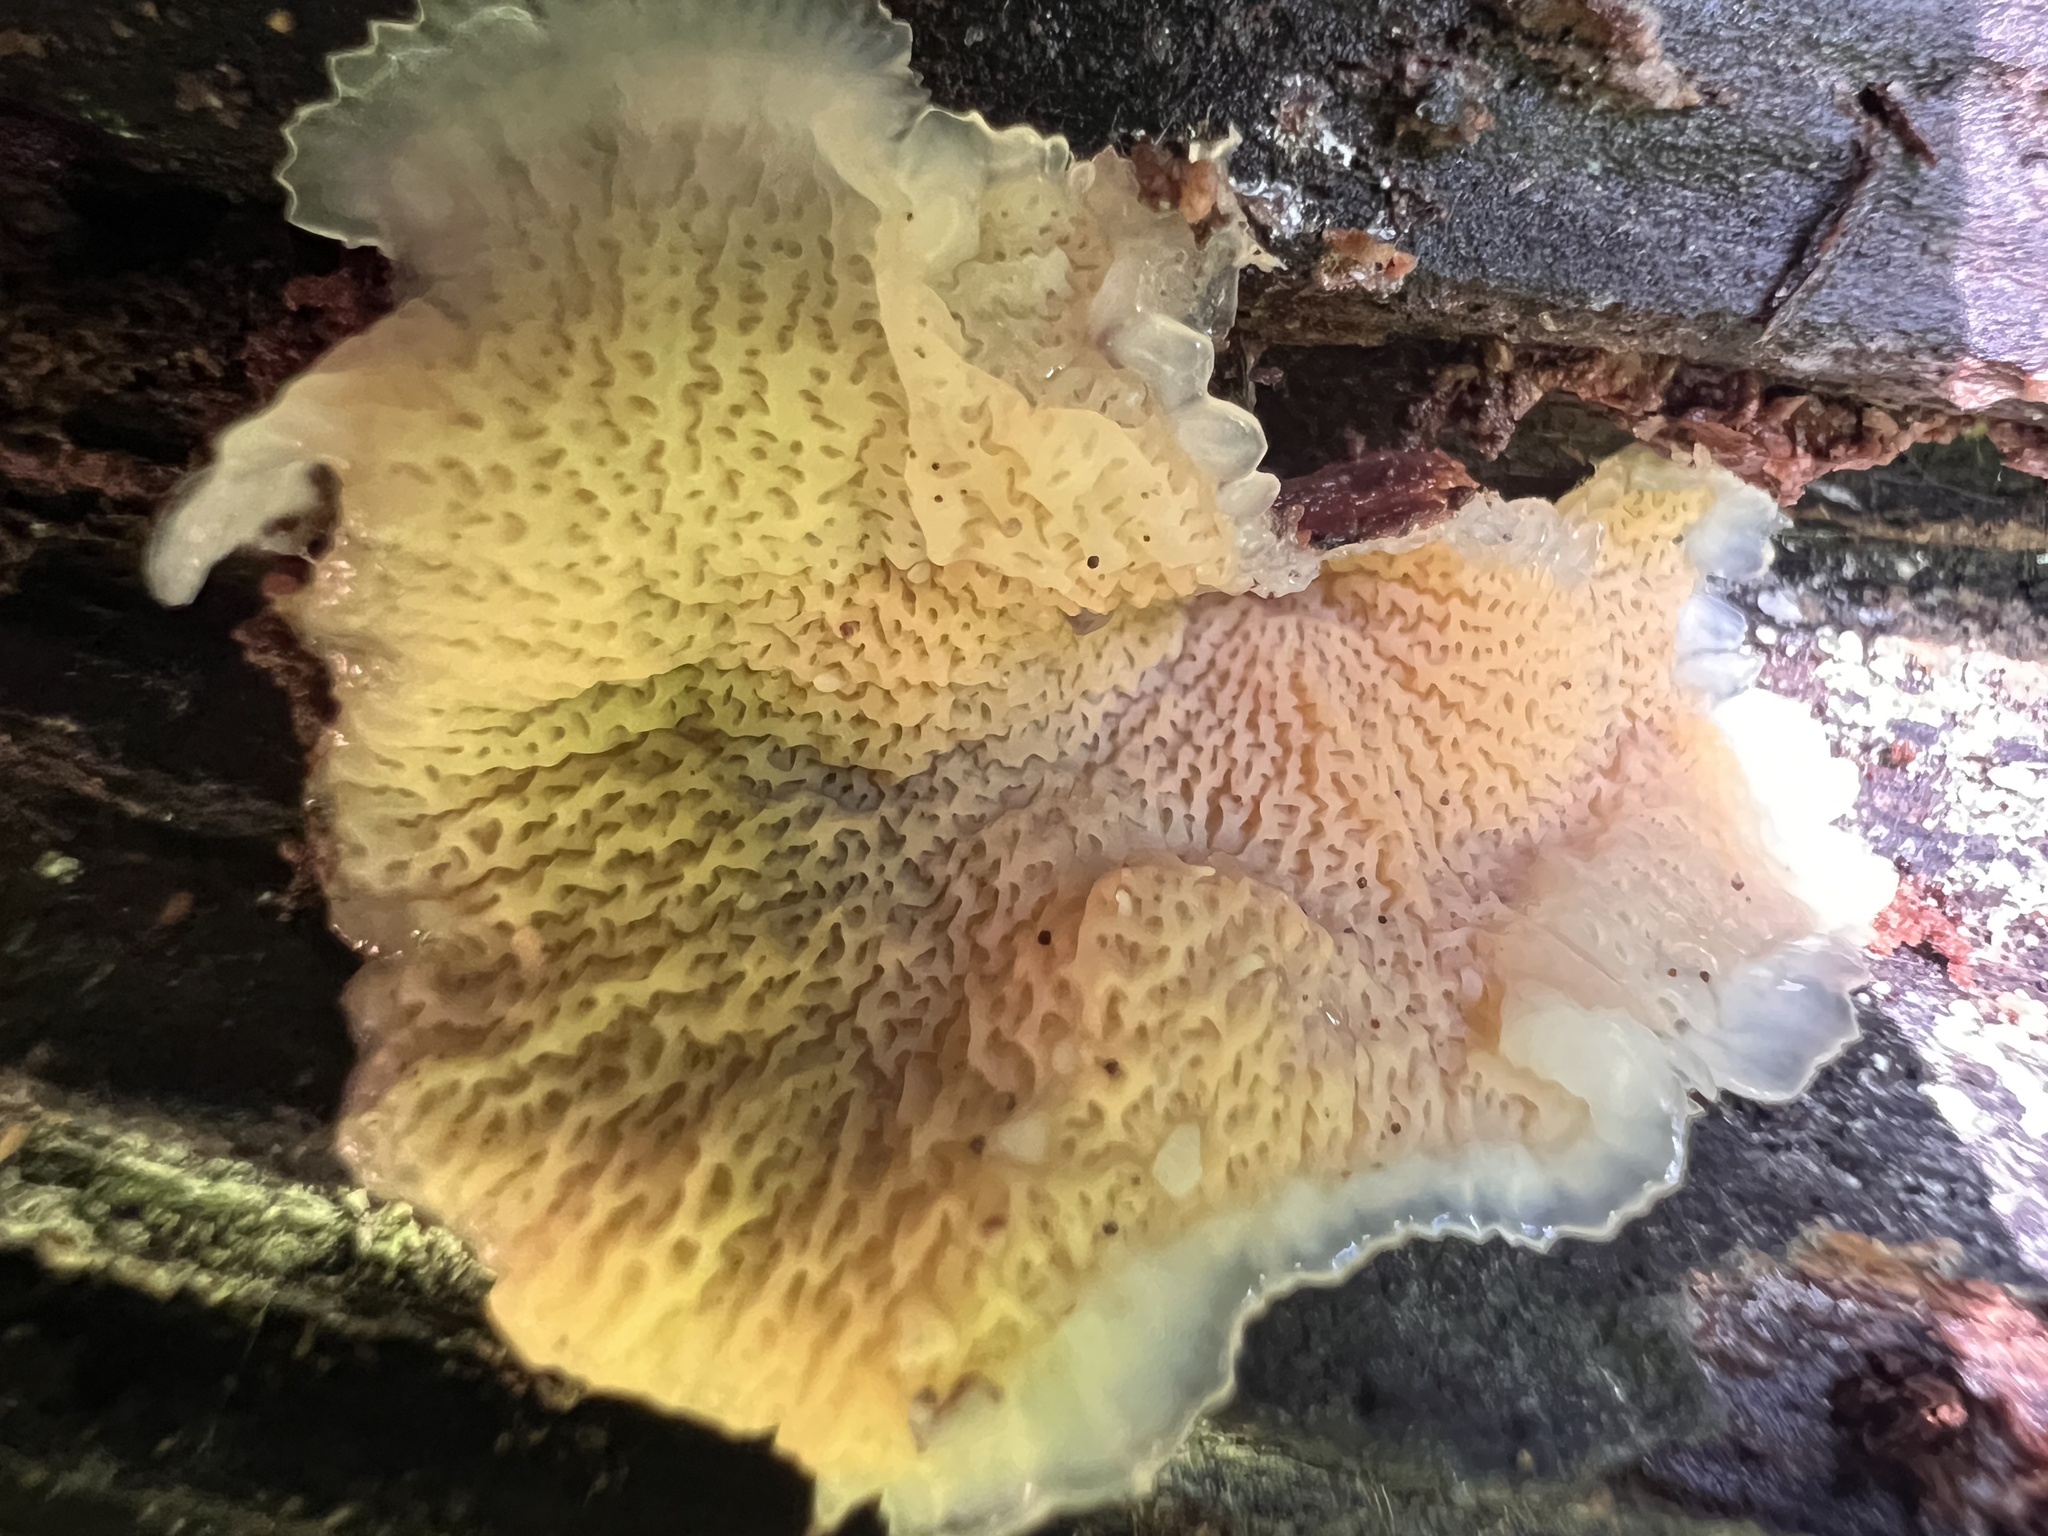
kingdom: Fungi
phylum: Basidiomycota
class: Agaricomycetes
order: Polyporales
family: Meruliaceae
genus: Phlebia
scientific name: Phlebia tremellosa
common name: Jelly rot
